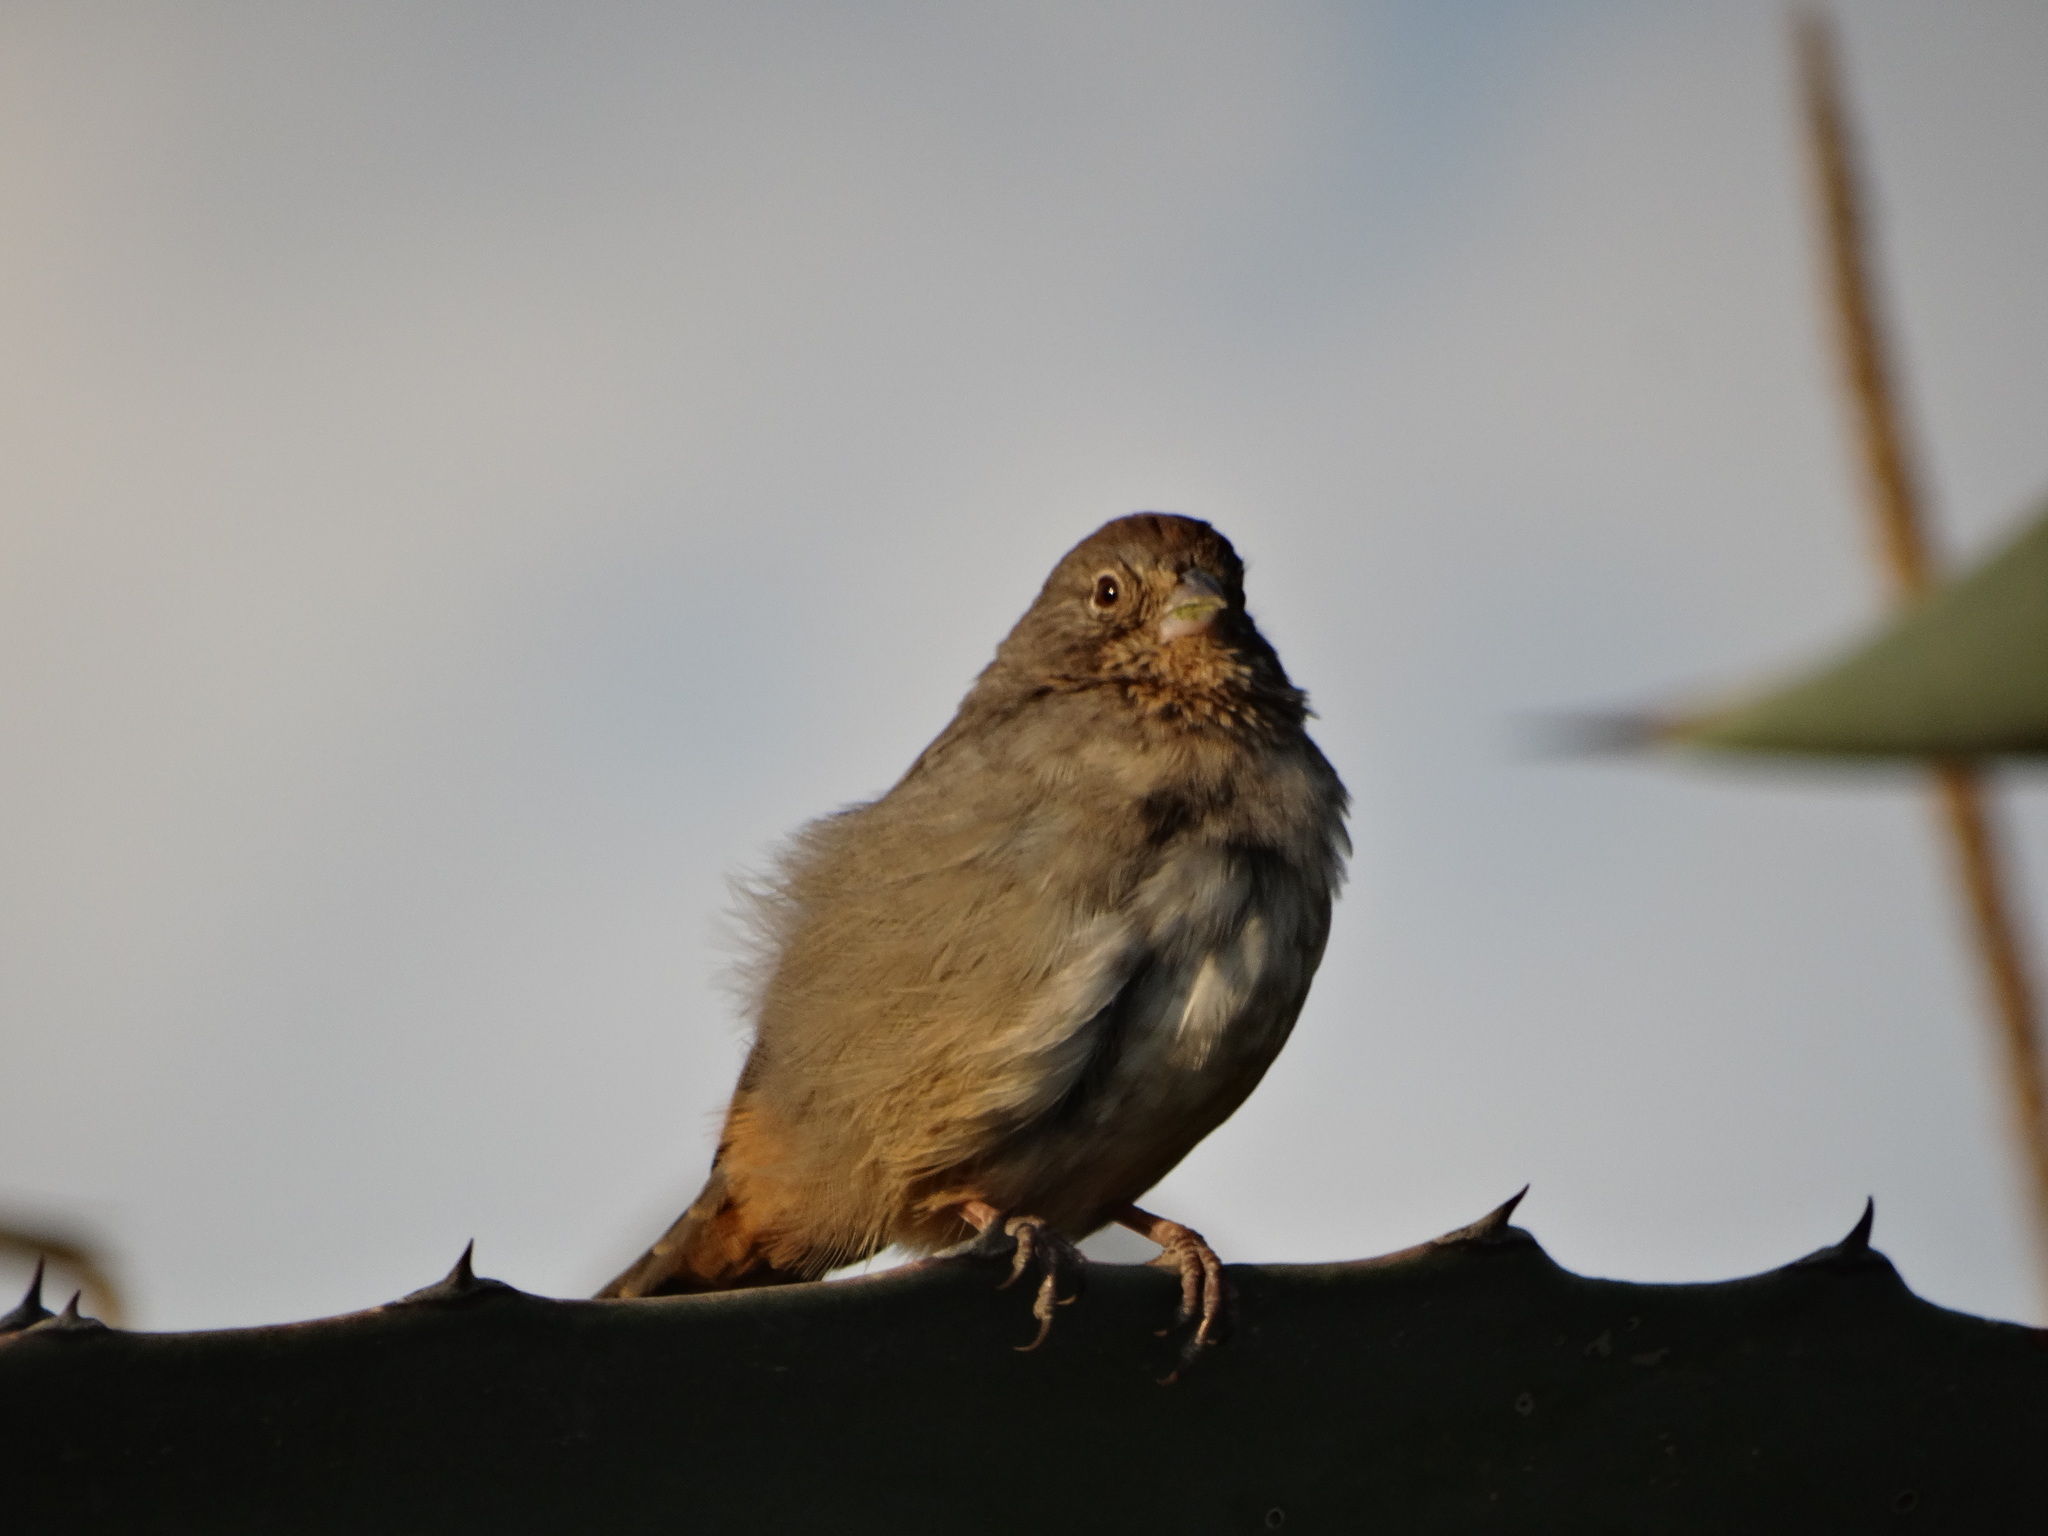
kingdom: Animalia
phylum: Chordata
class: Aves
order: Passeriformes
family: Passerellidae
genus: Melozone
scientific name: Melozone fusca
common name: Canyon towhee
